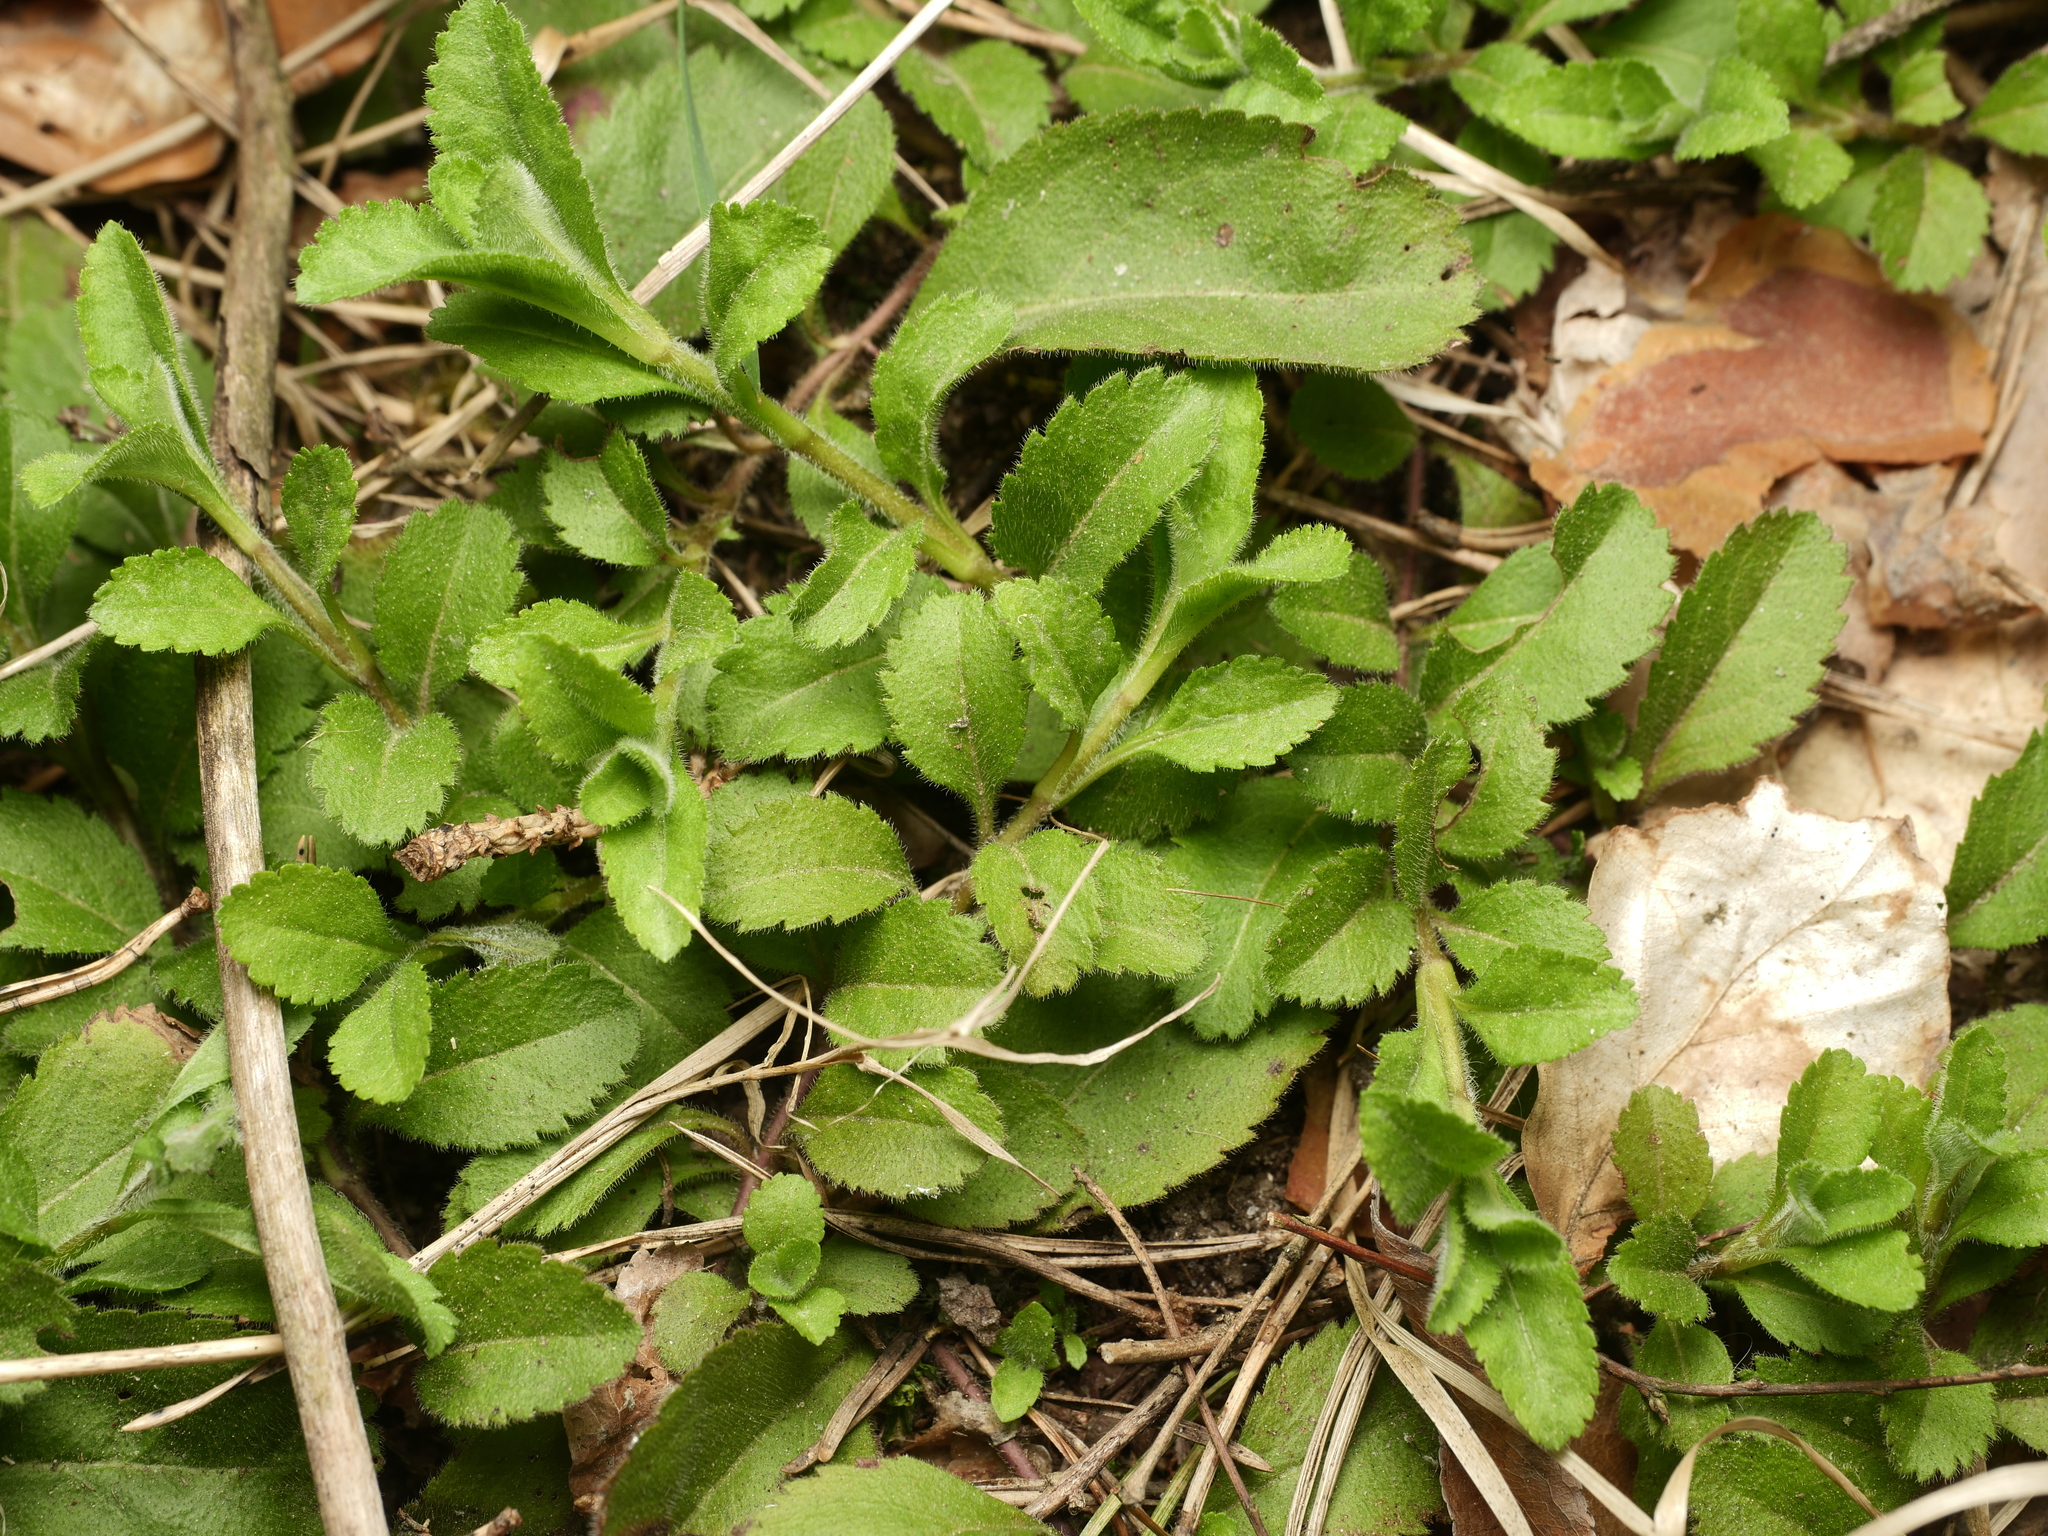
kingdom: Plantae
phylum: Tracheophyta
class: Magnoliopsida
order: Lamiales
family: Plantaginaceae
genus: Veronica
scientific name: Veronica officinalis
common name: Common speedwell
